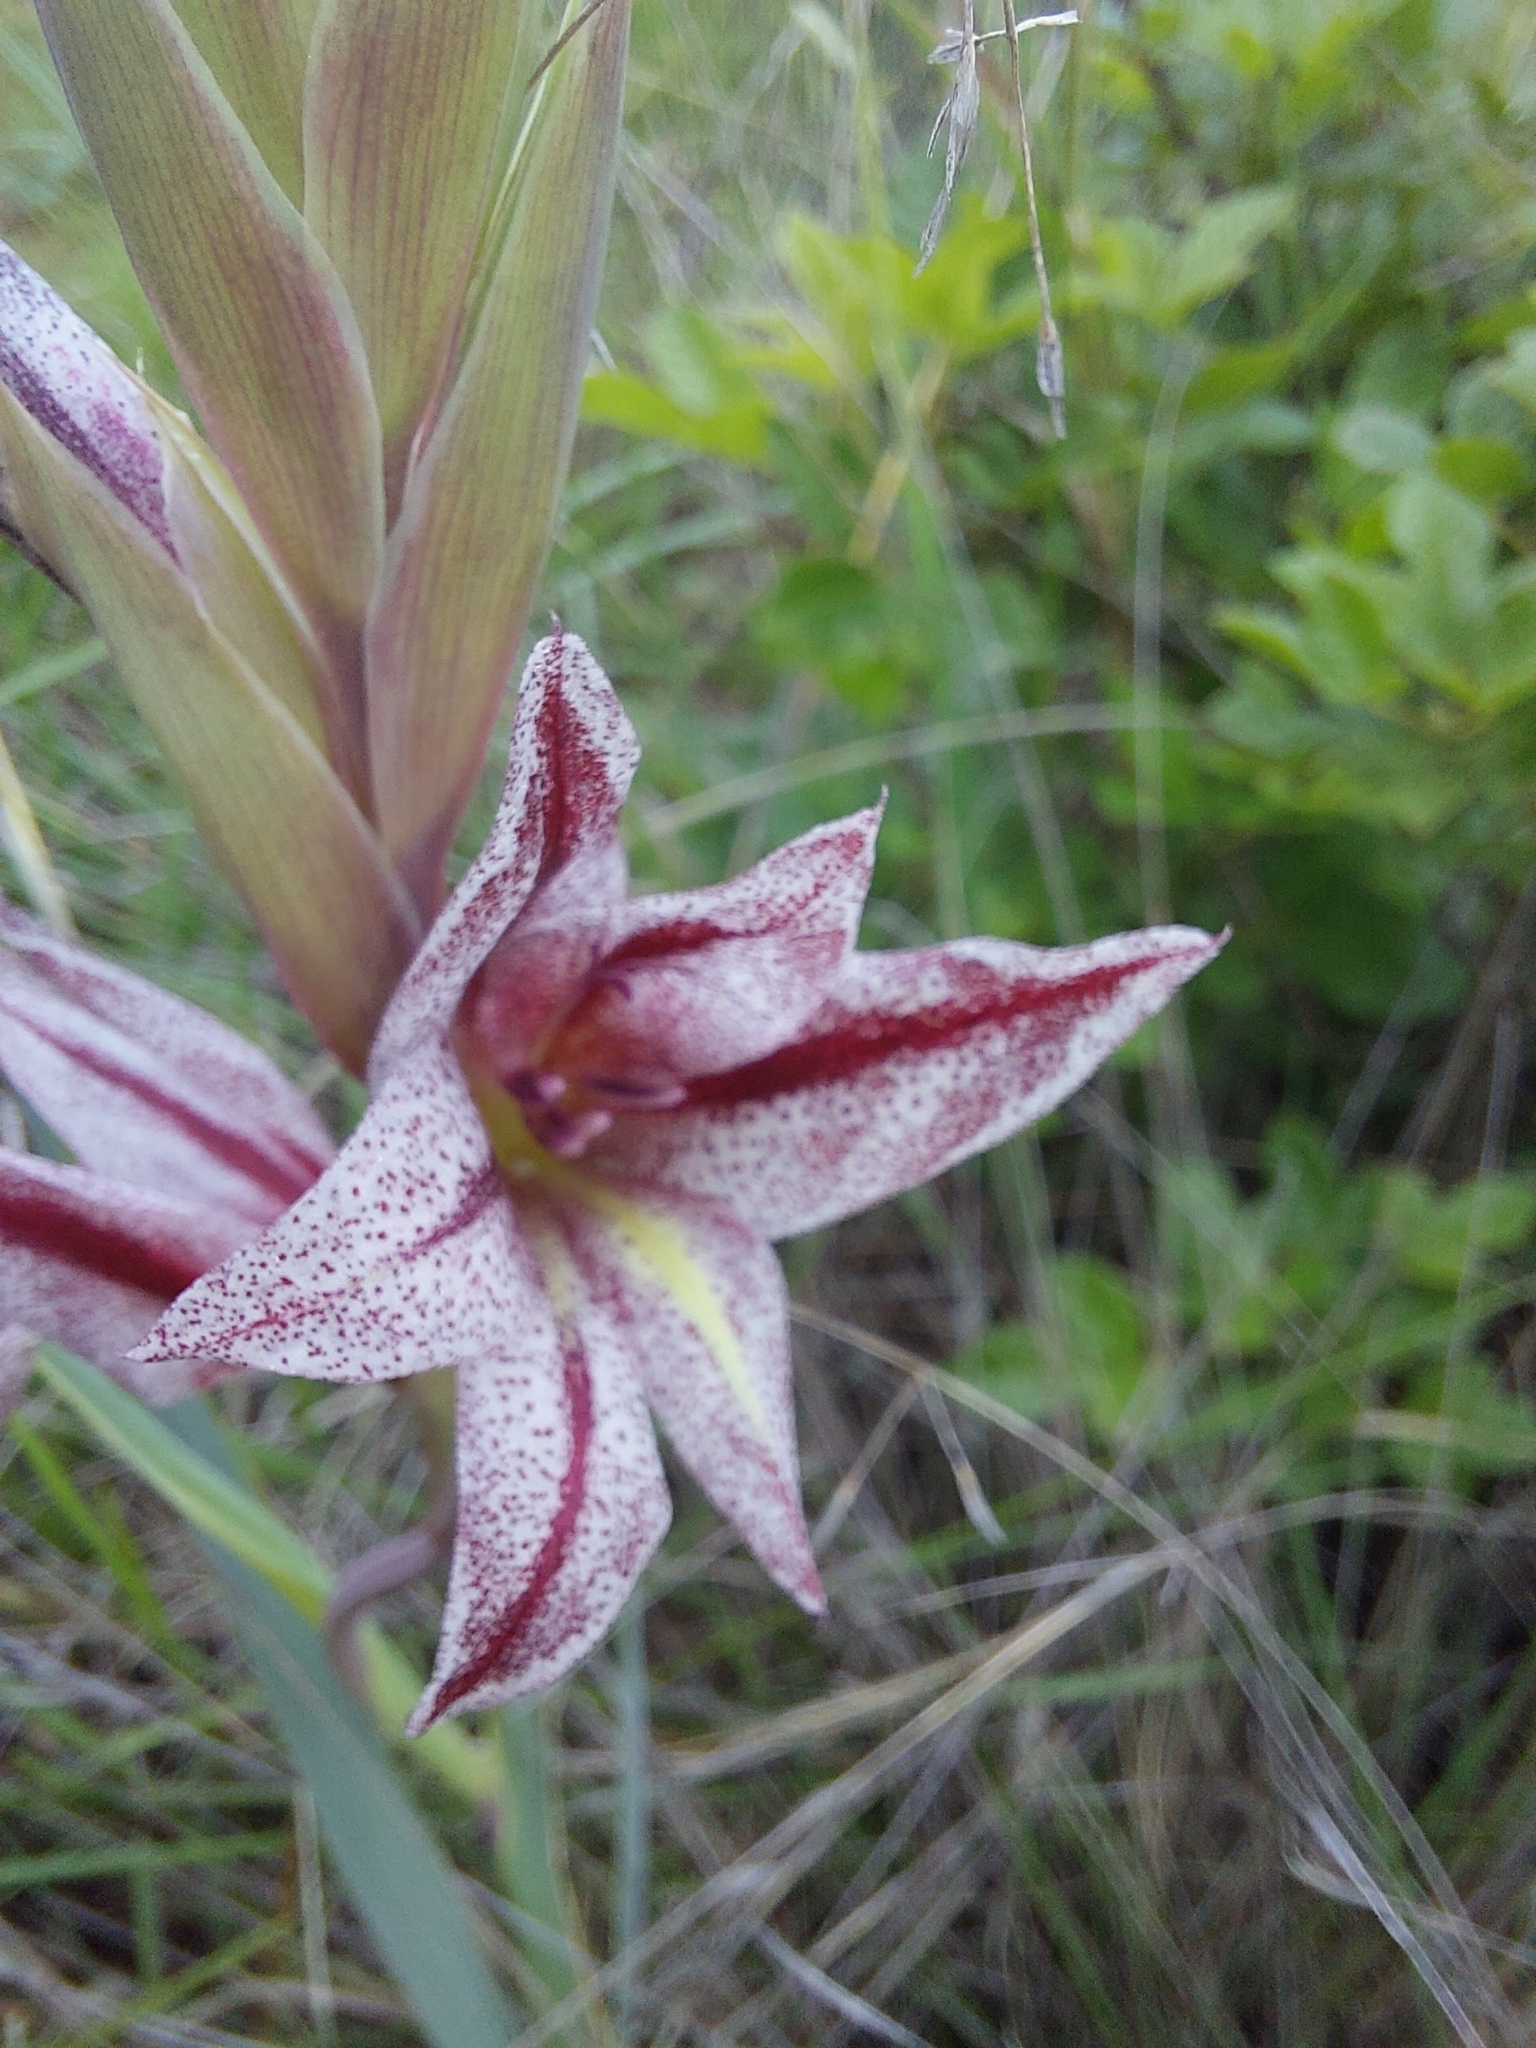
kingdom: Plantae
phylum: Tracheophyta
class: Liliopsida
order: Asparagales
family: Iridaceae
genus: Gladiolus
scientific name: Gladiolus elliotii
